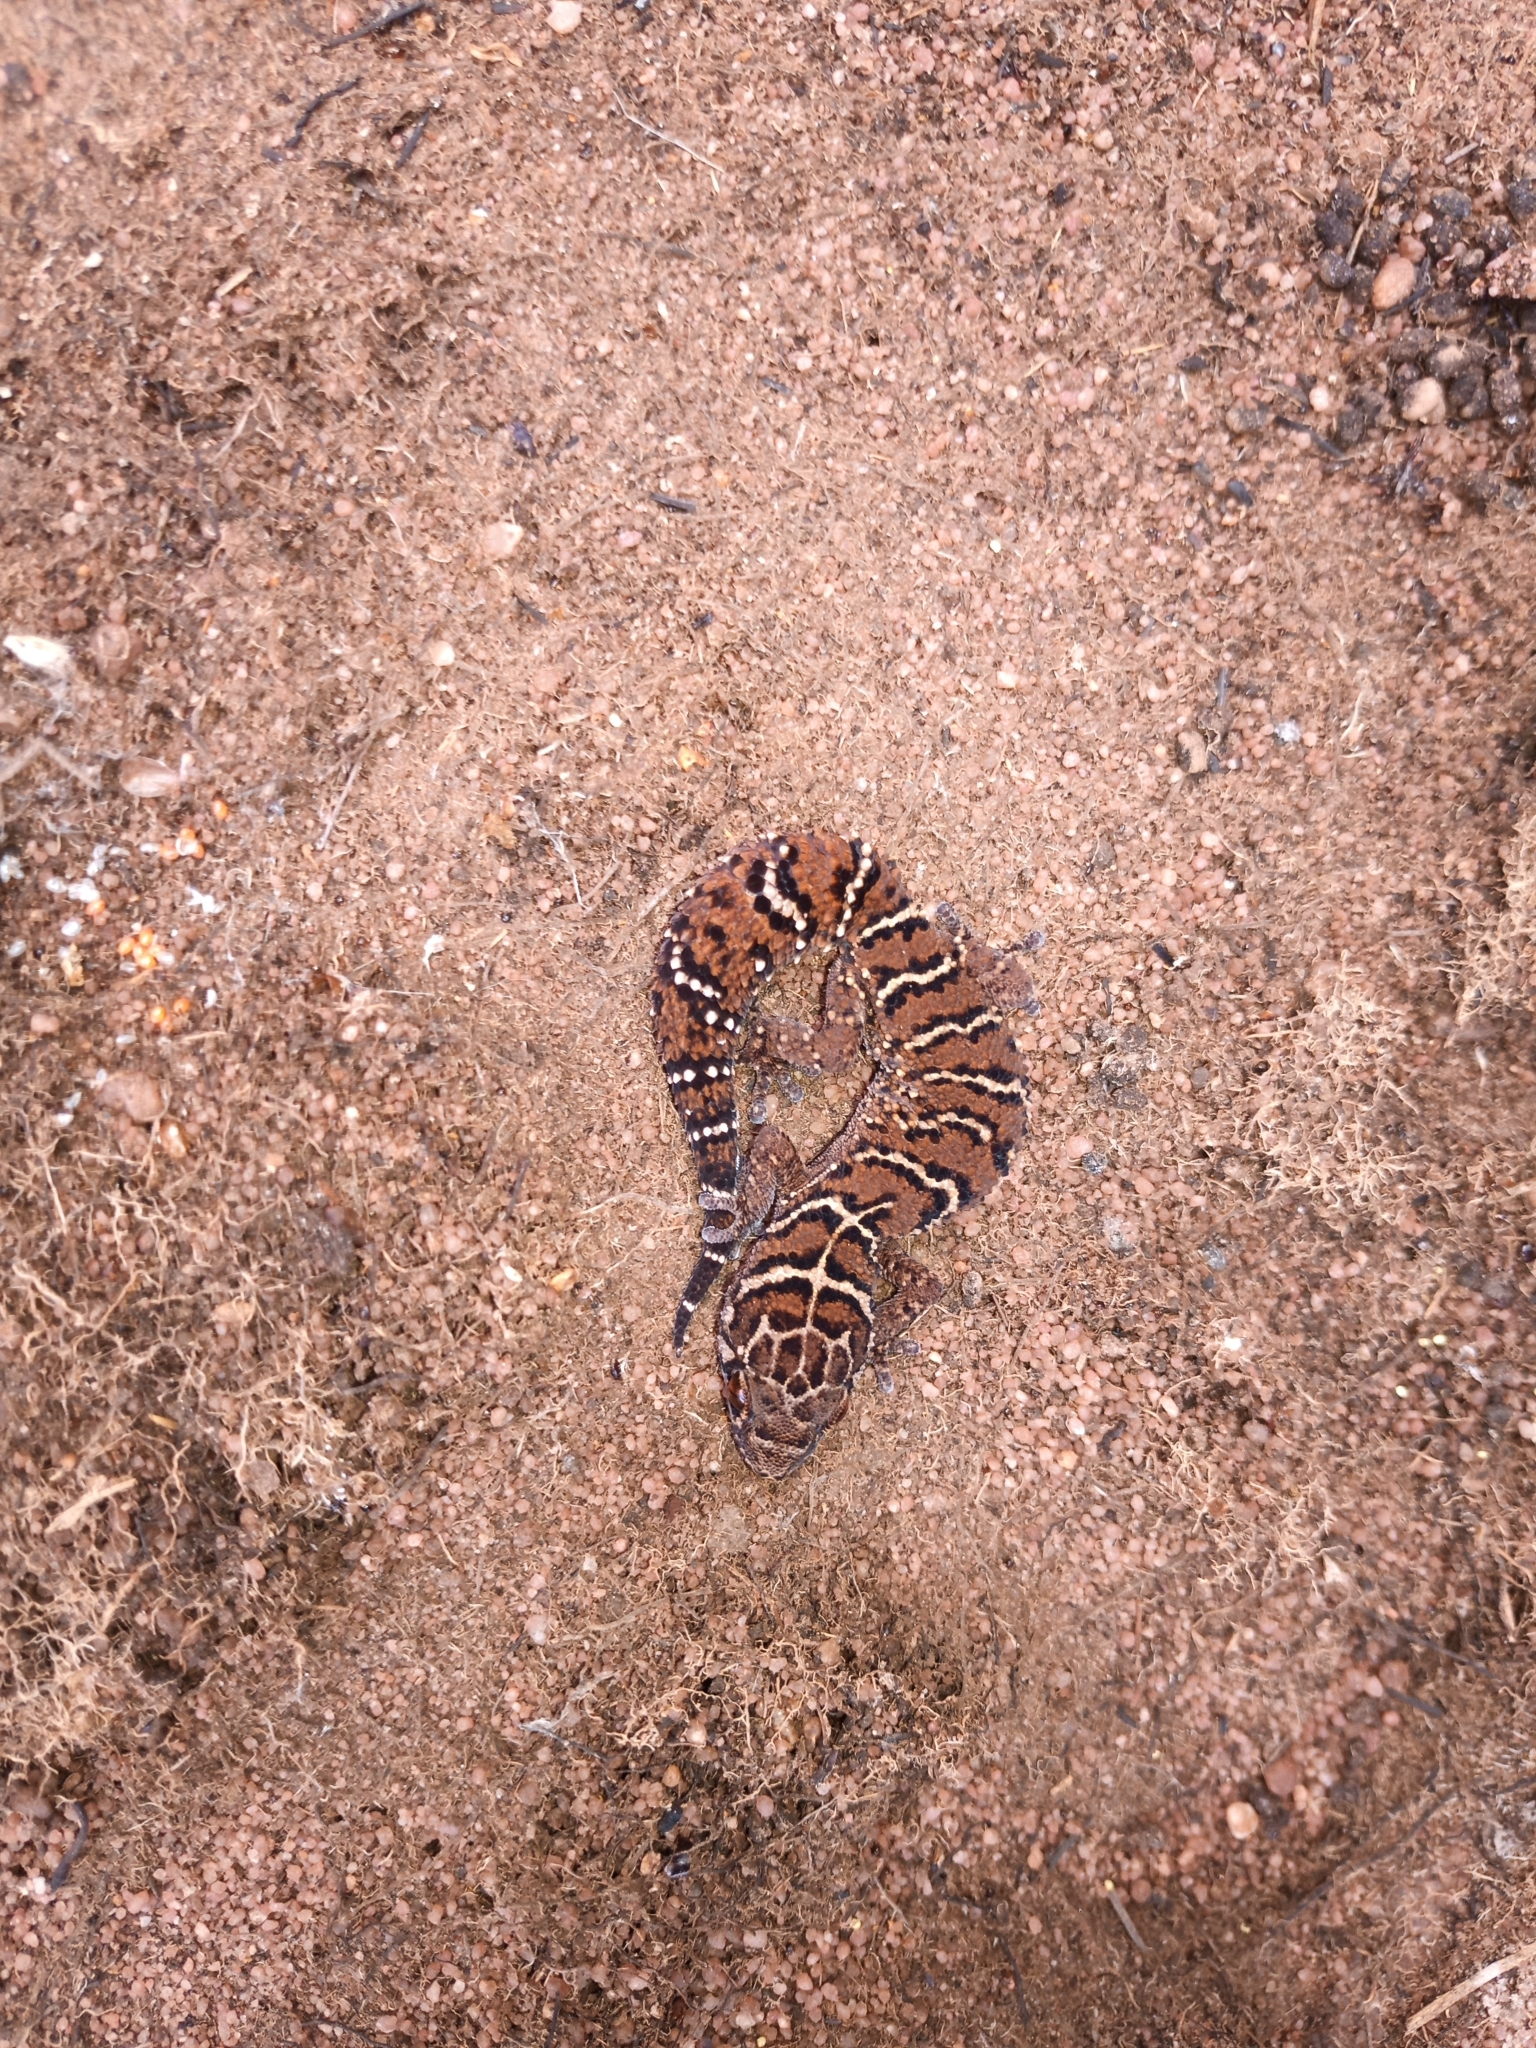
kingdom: Animalia
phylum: Chordata
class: Squamata
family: Gekkonidae
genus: Pachydactylus
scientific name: Pachydactylus vansoni
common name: Van son's gecko
